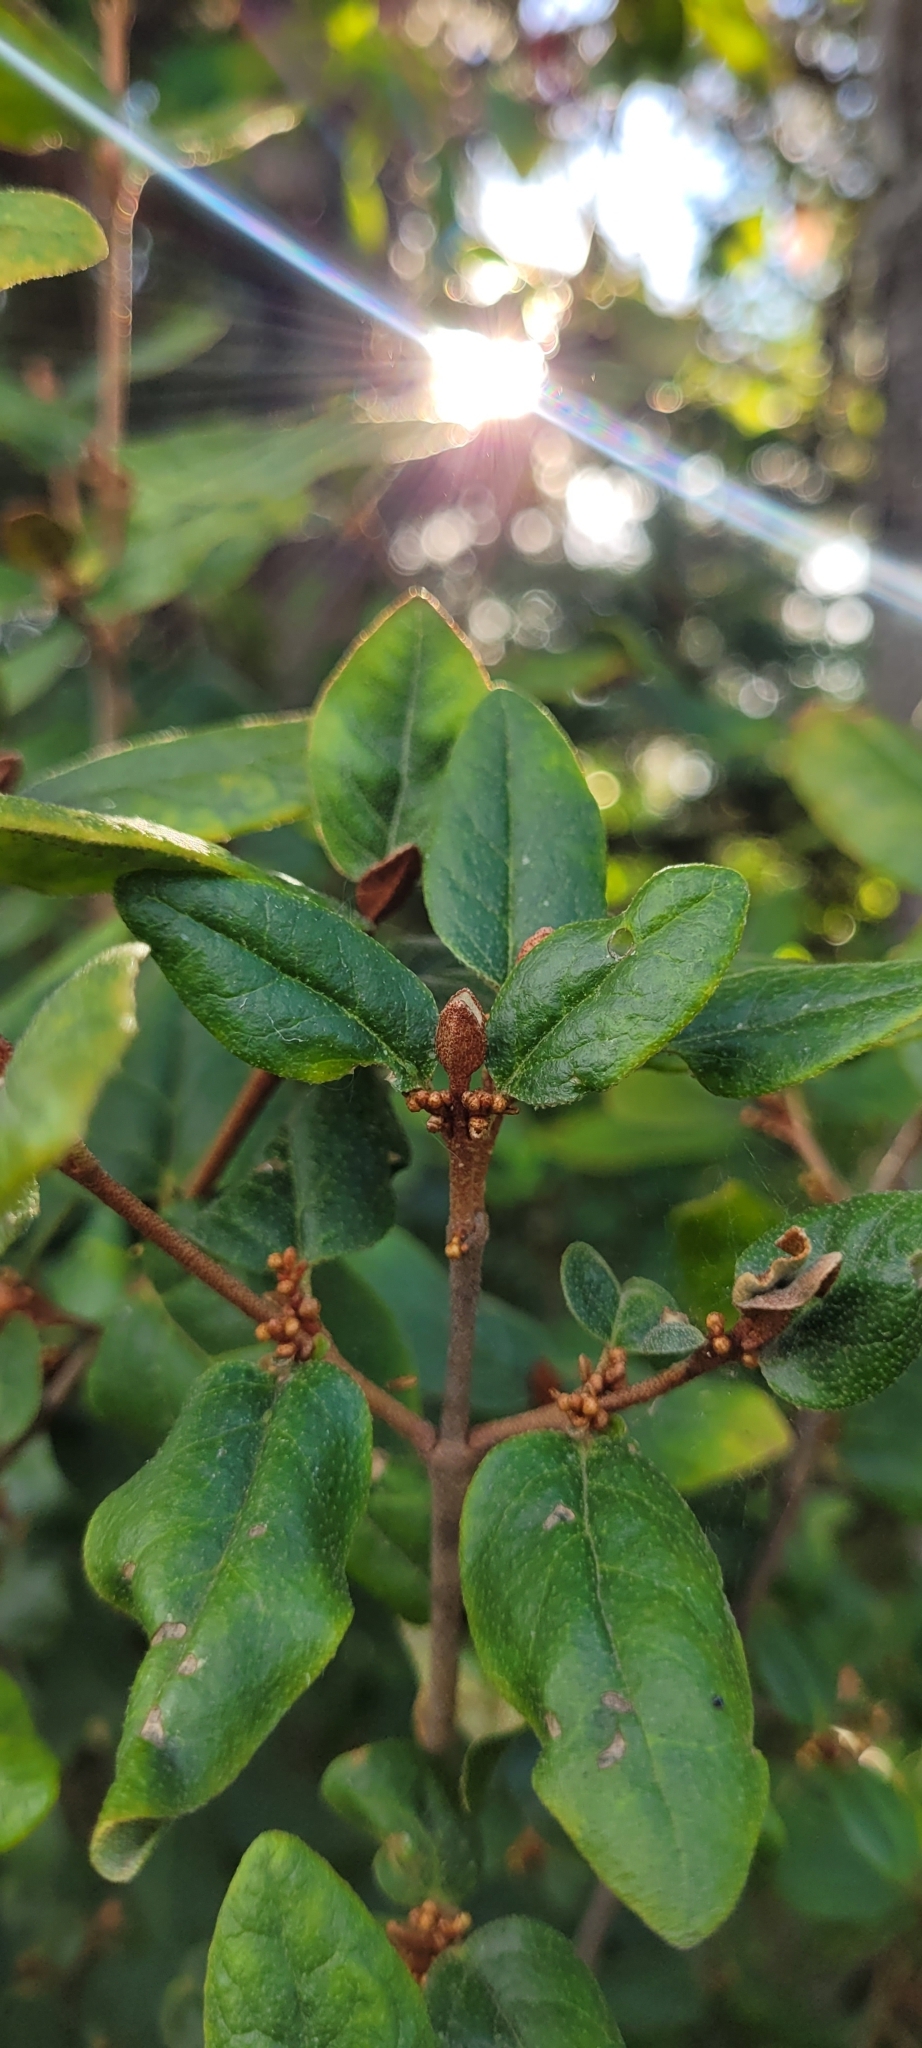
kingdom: Plantae
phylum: Tracheophyta
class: Magnoliopsida
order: Rosales
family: Elaeagnaceae
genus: Shepherdia
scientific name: Shepherdia canadensis
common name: Soapberry
